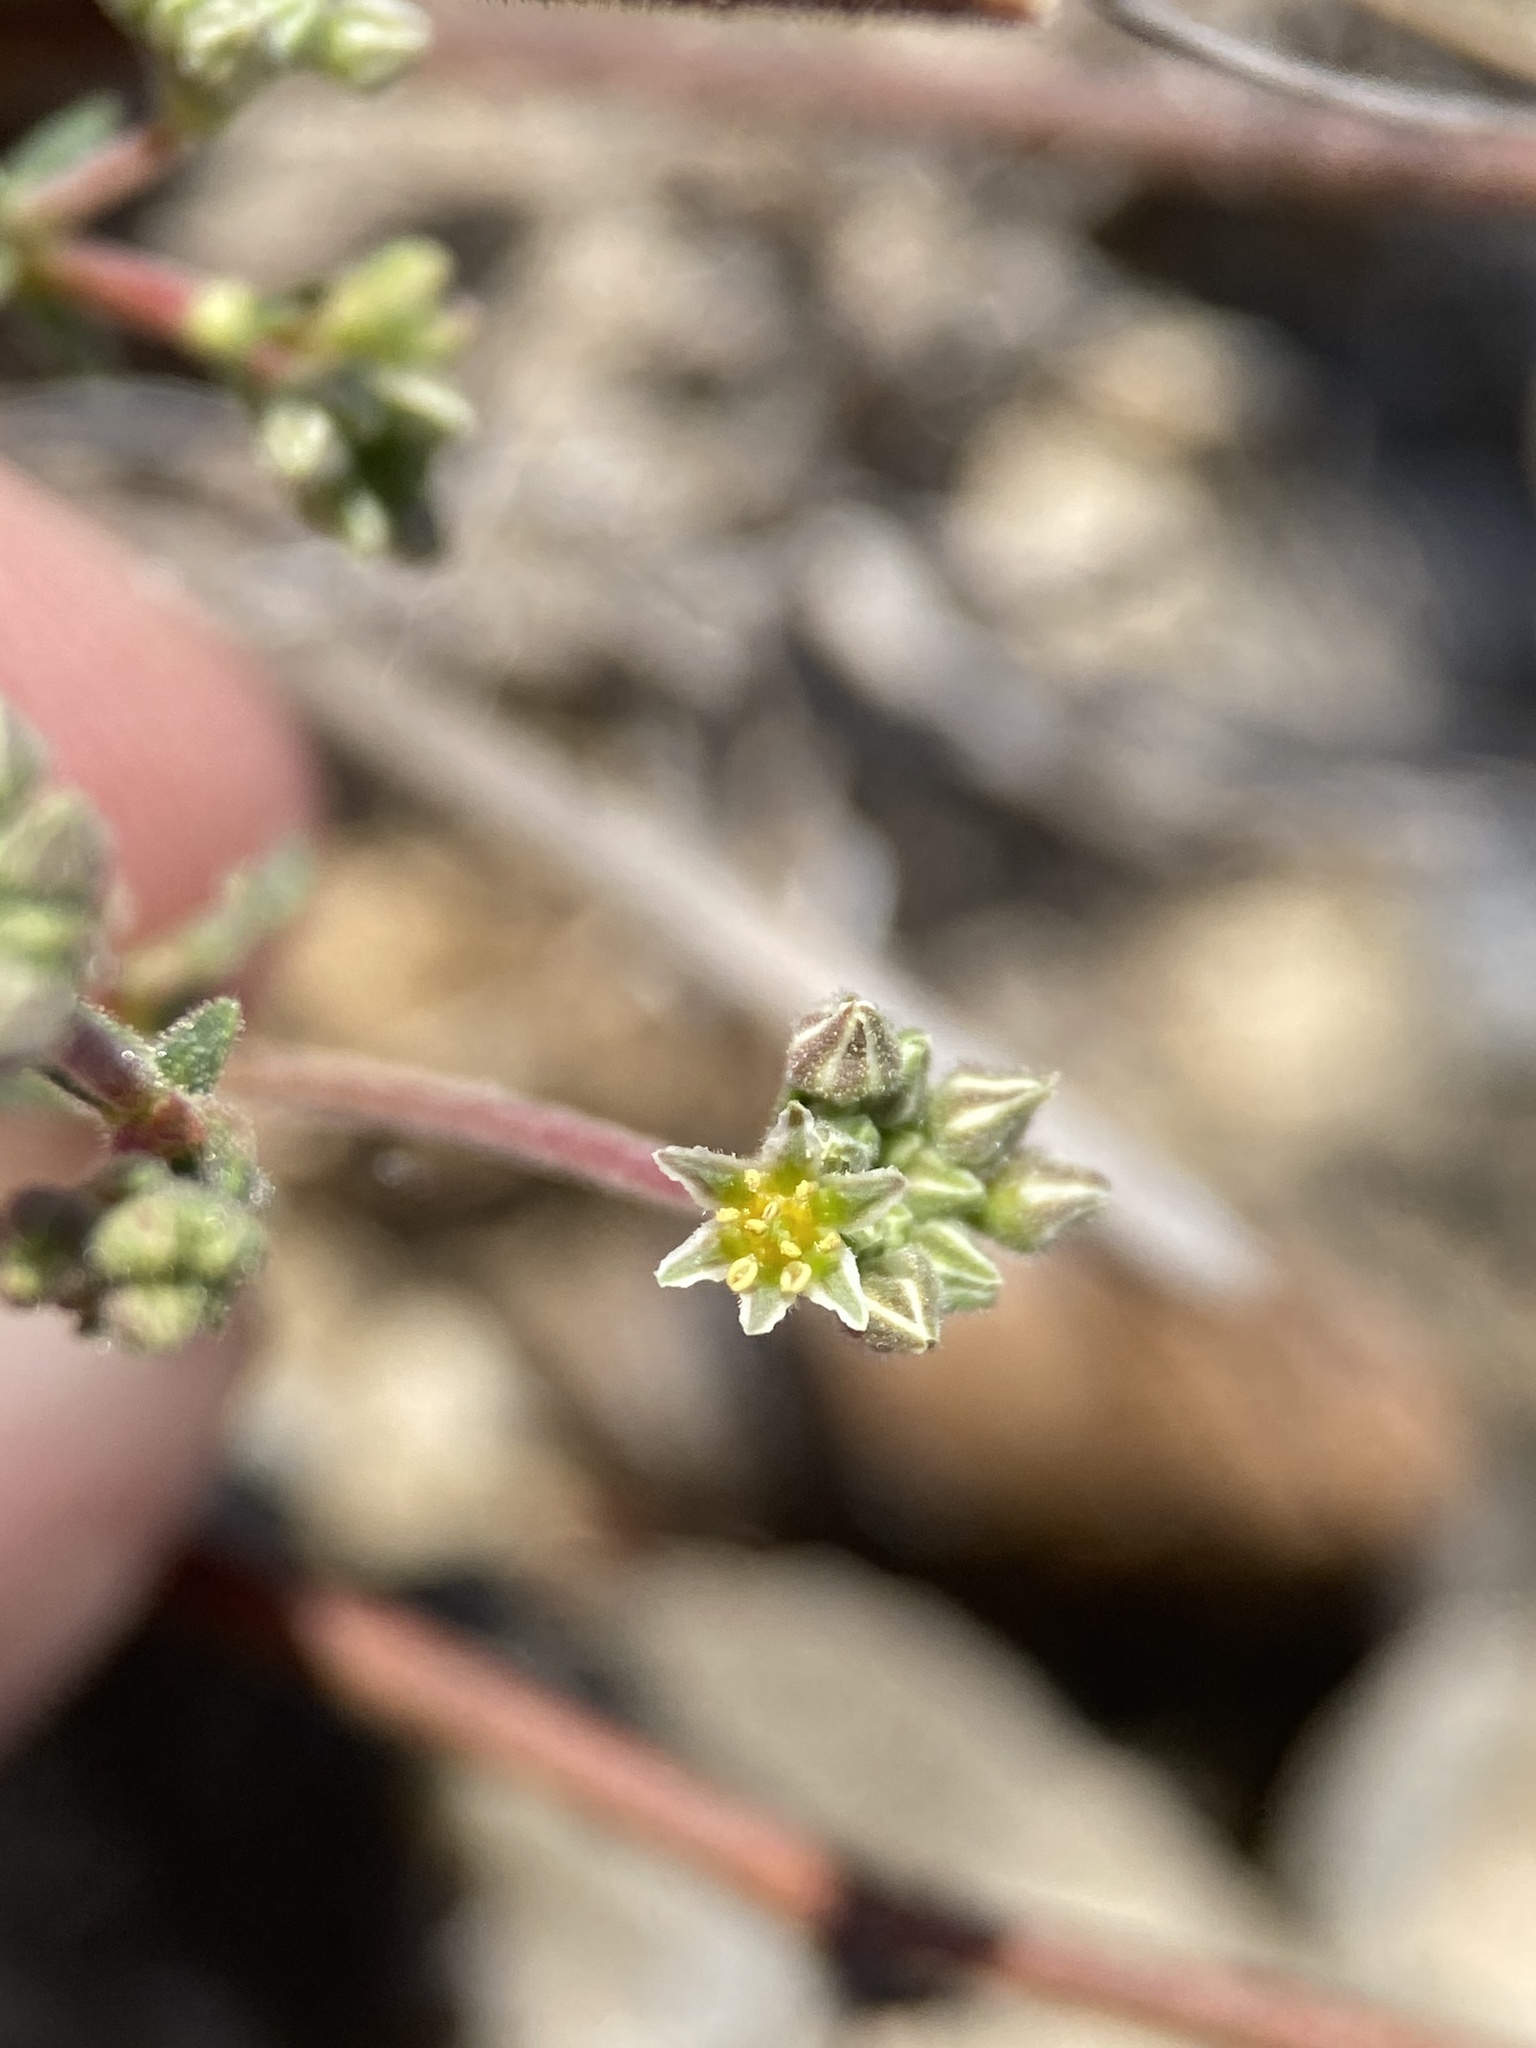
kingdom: Plantae
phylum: Tracheophyta
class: Magnoliopsida
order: Caryophyllales
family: Polygonaceae
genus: Eriogonum
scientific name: Eriogonum greggii
